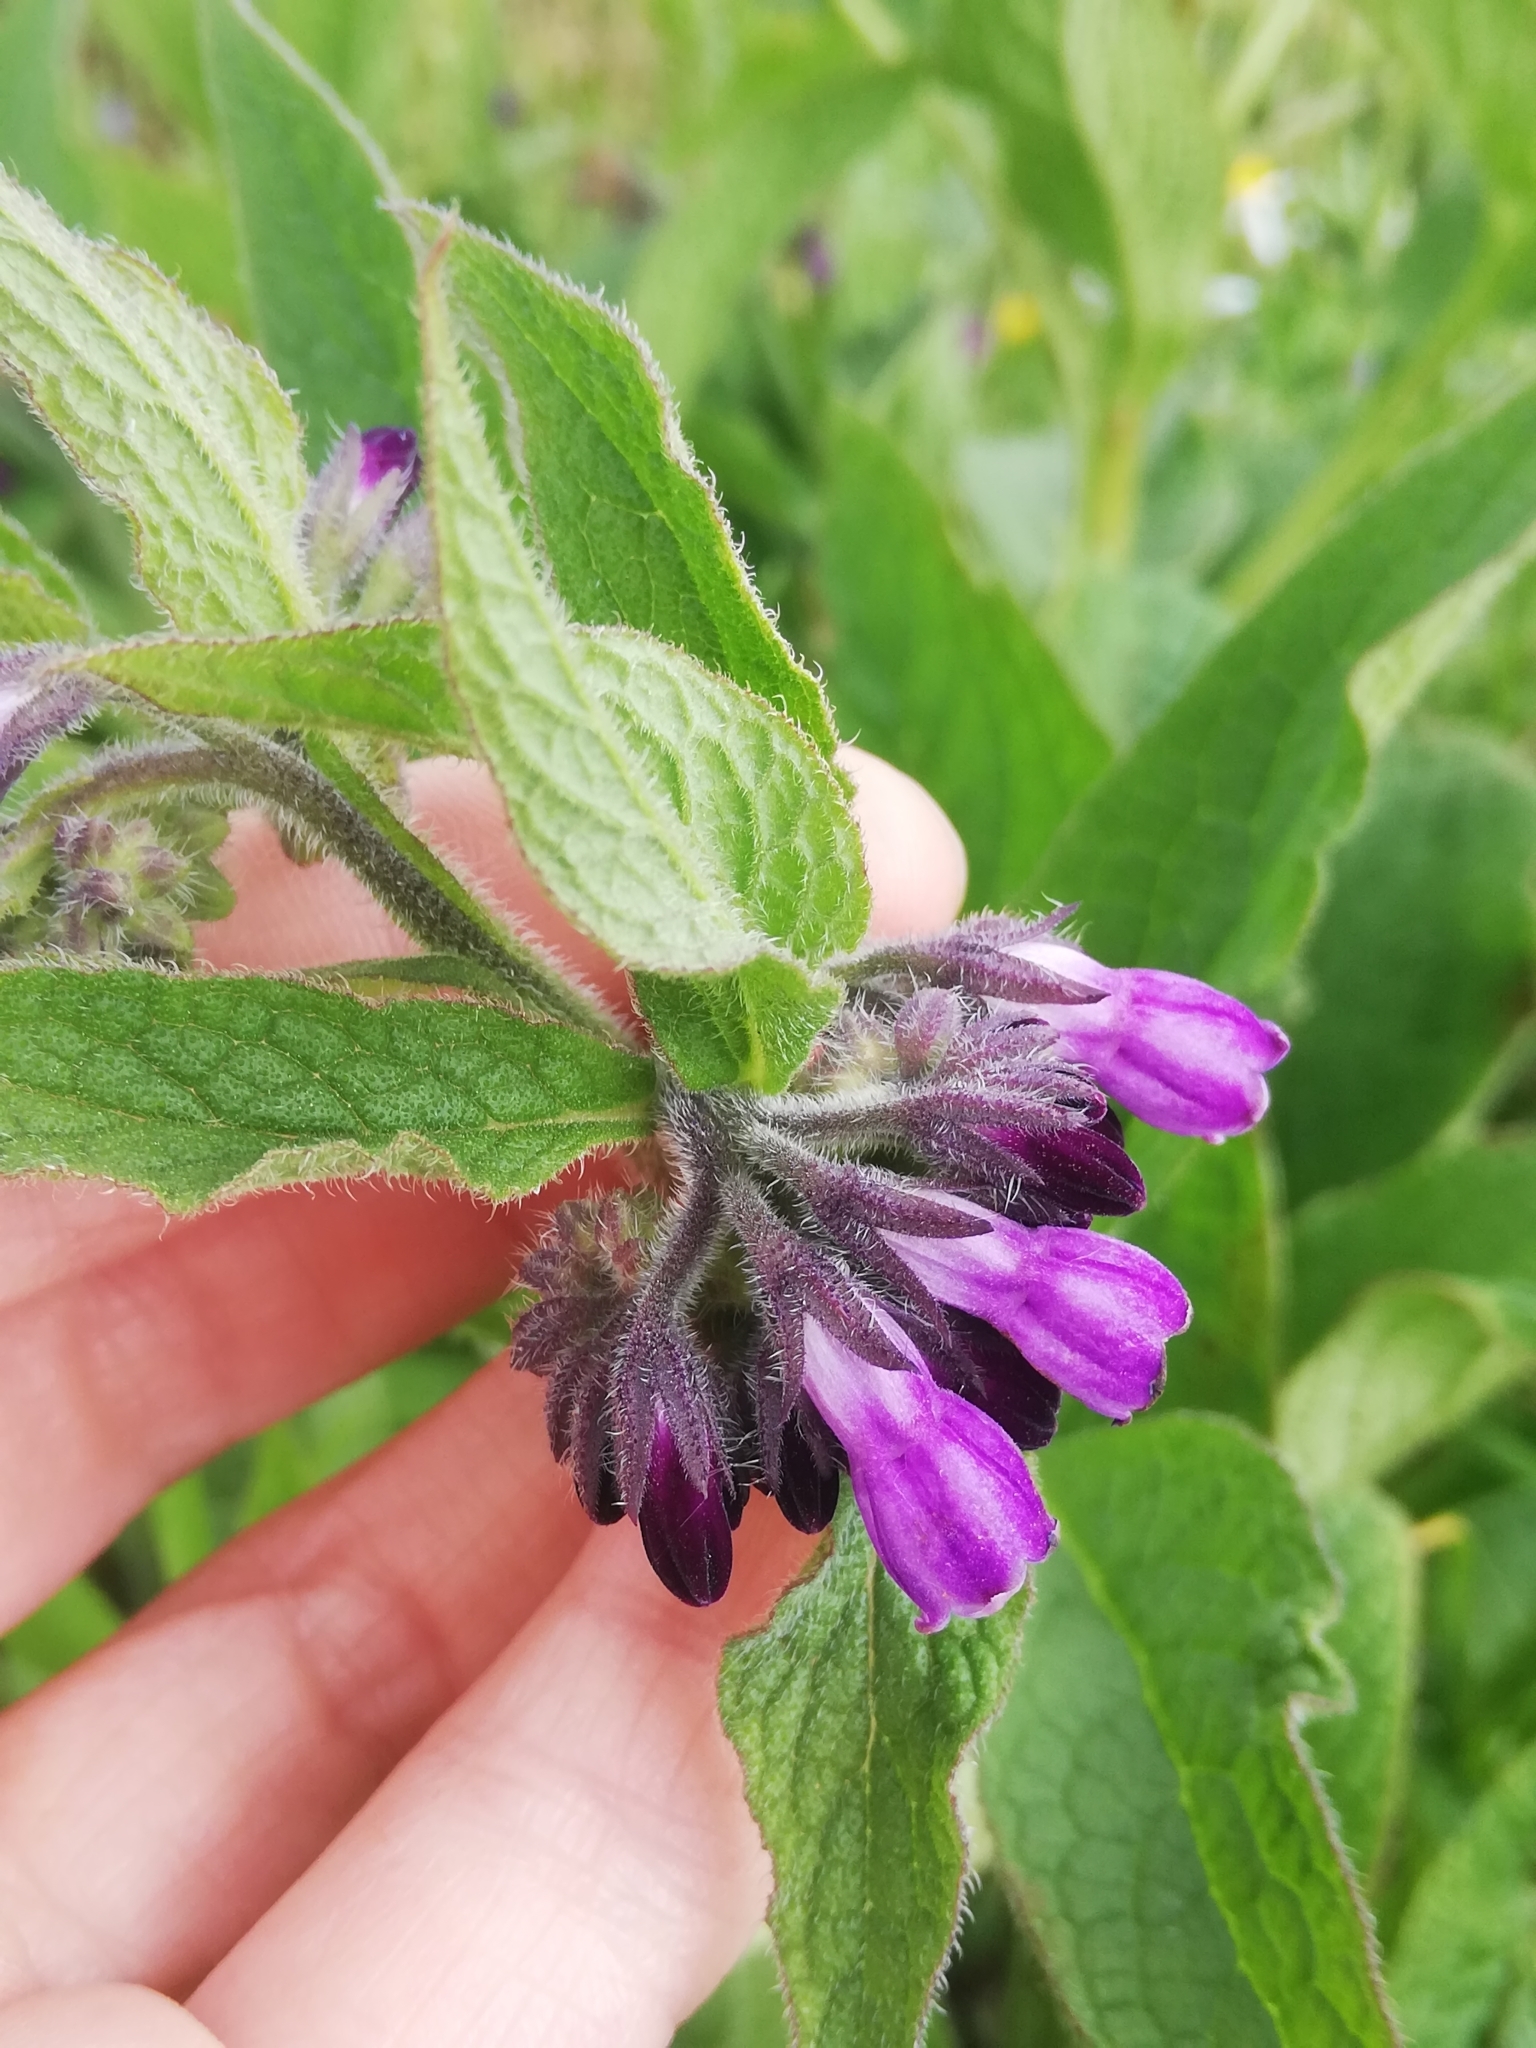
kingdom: Plantae
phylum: Tracheophyta
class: Magnoliopsida
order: Boraginales
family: Boraginaceae
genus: Symphytum
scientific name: Symphytum officinale
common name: Common comfrey
